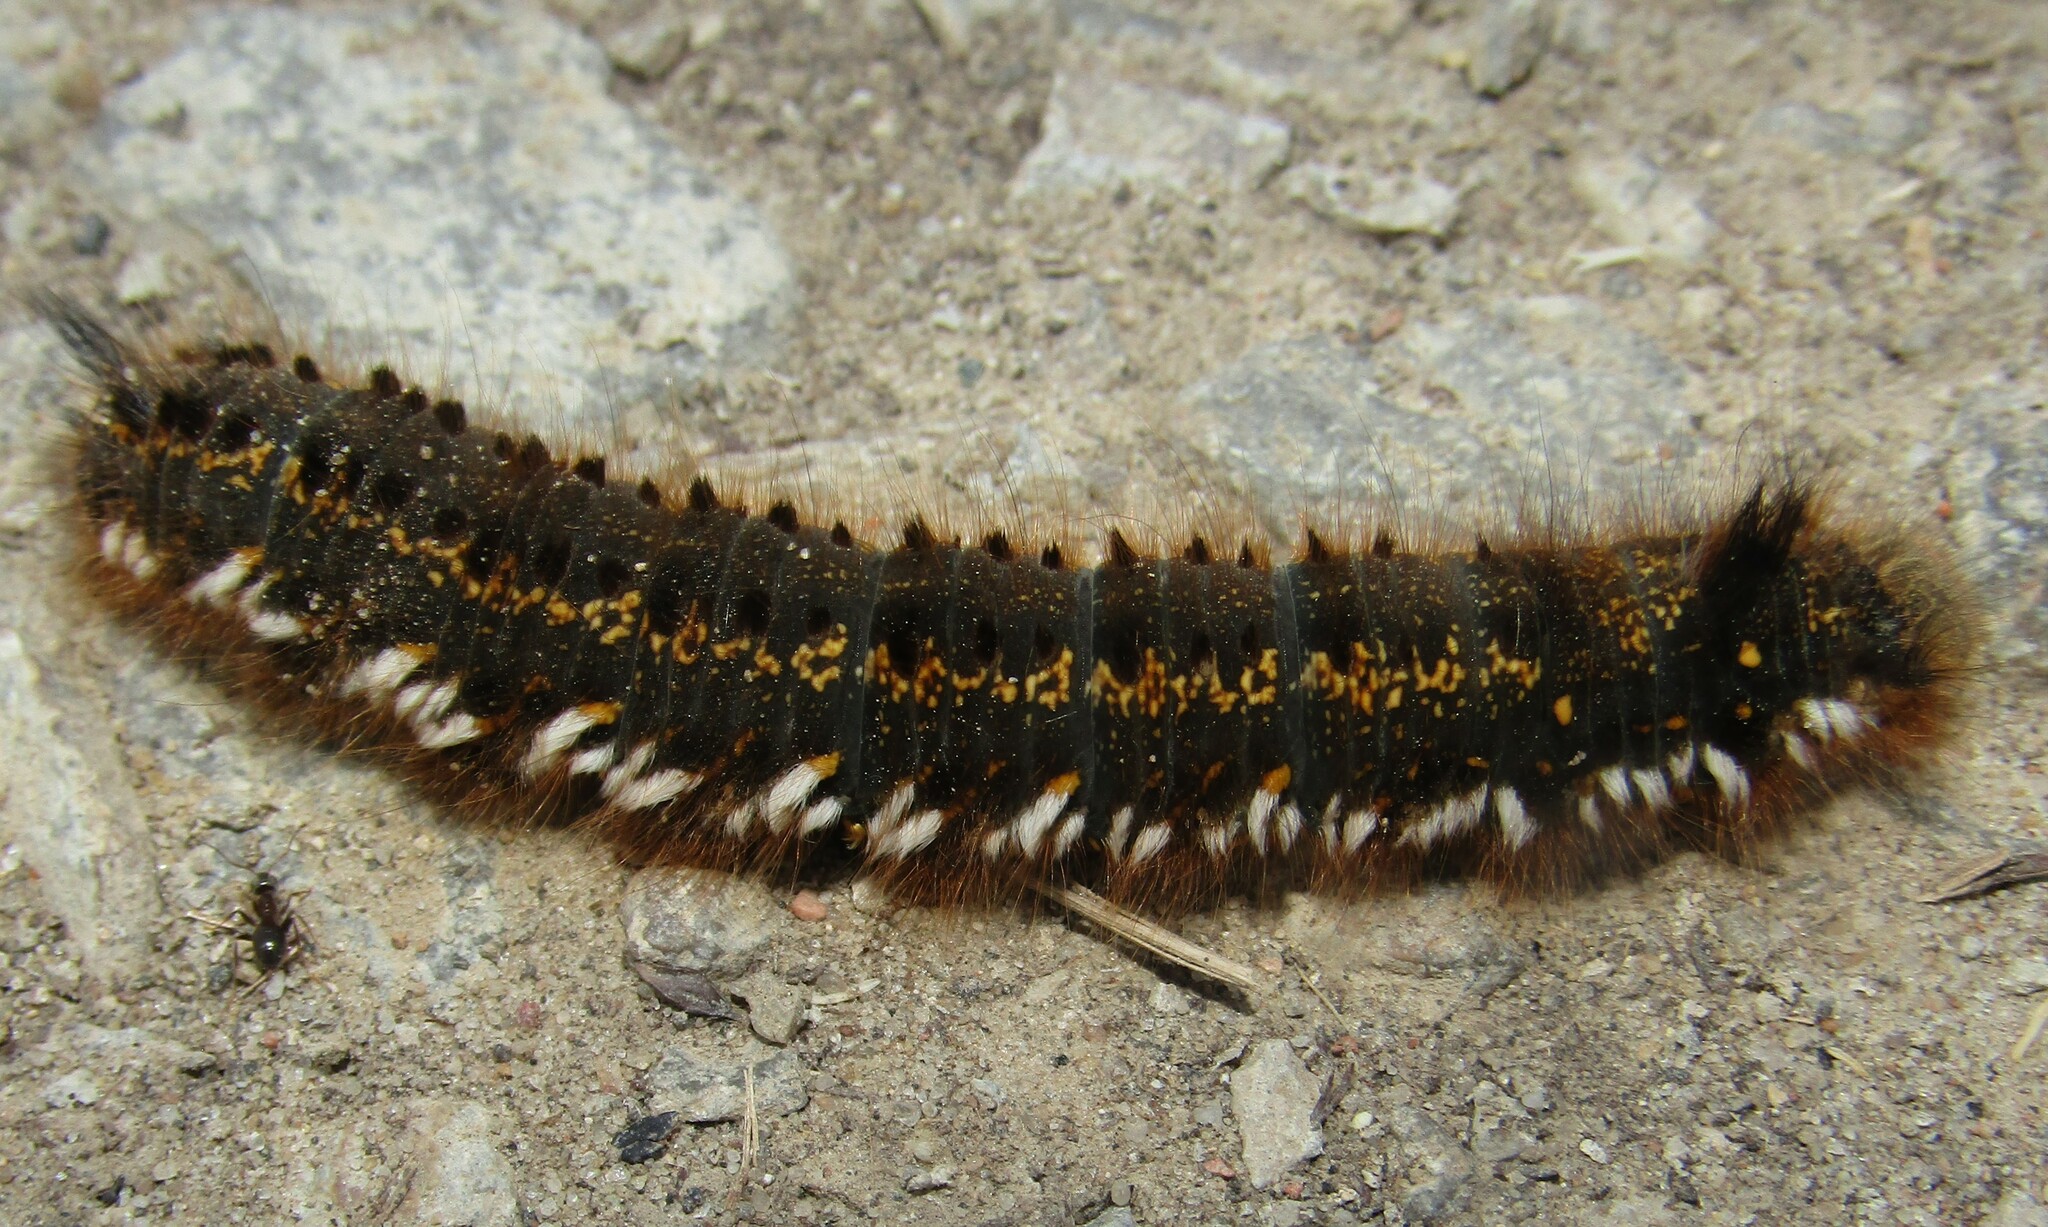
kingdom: Animalia
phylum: Arthropoda
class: Insecta
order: Lepidoptera
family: Lasiocampidae
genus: Euthrix
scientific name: Euthrix potatoria
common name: Drinker
